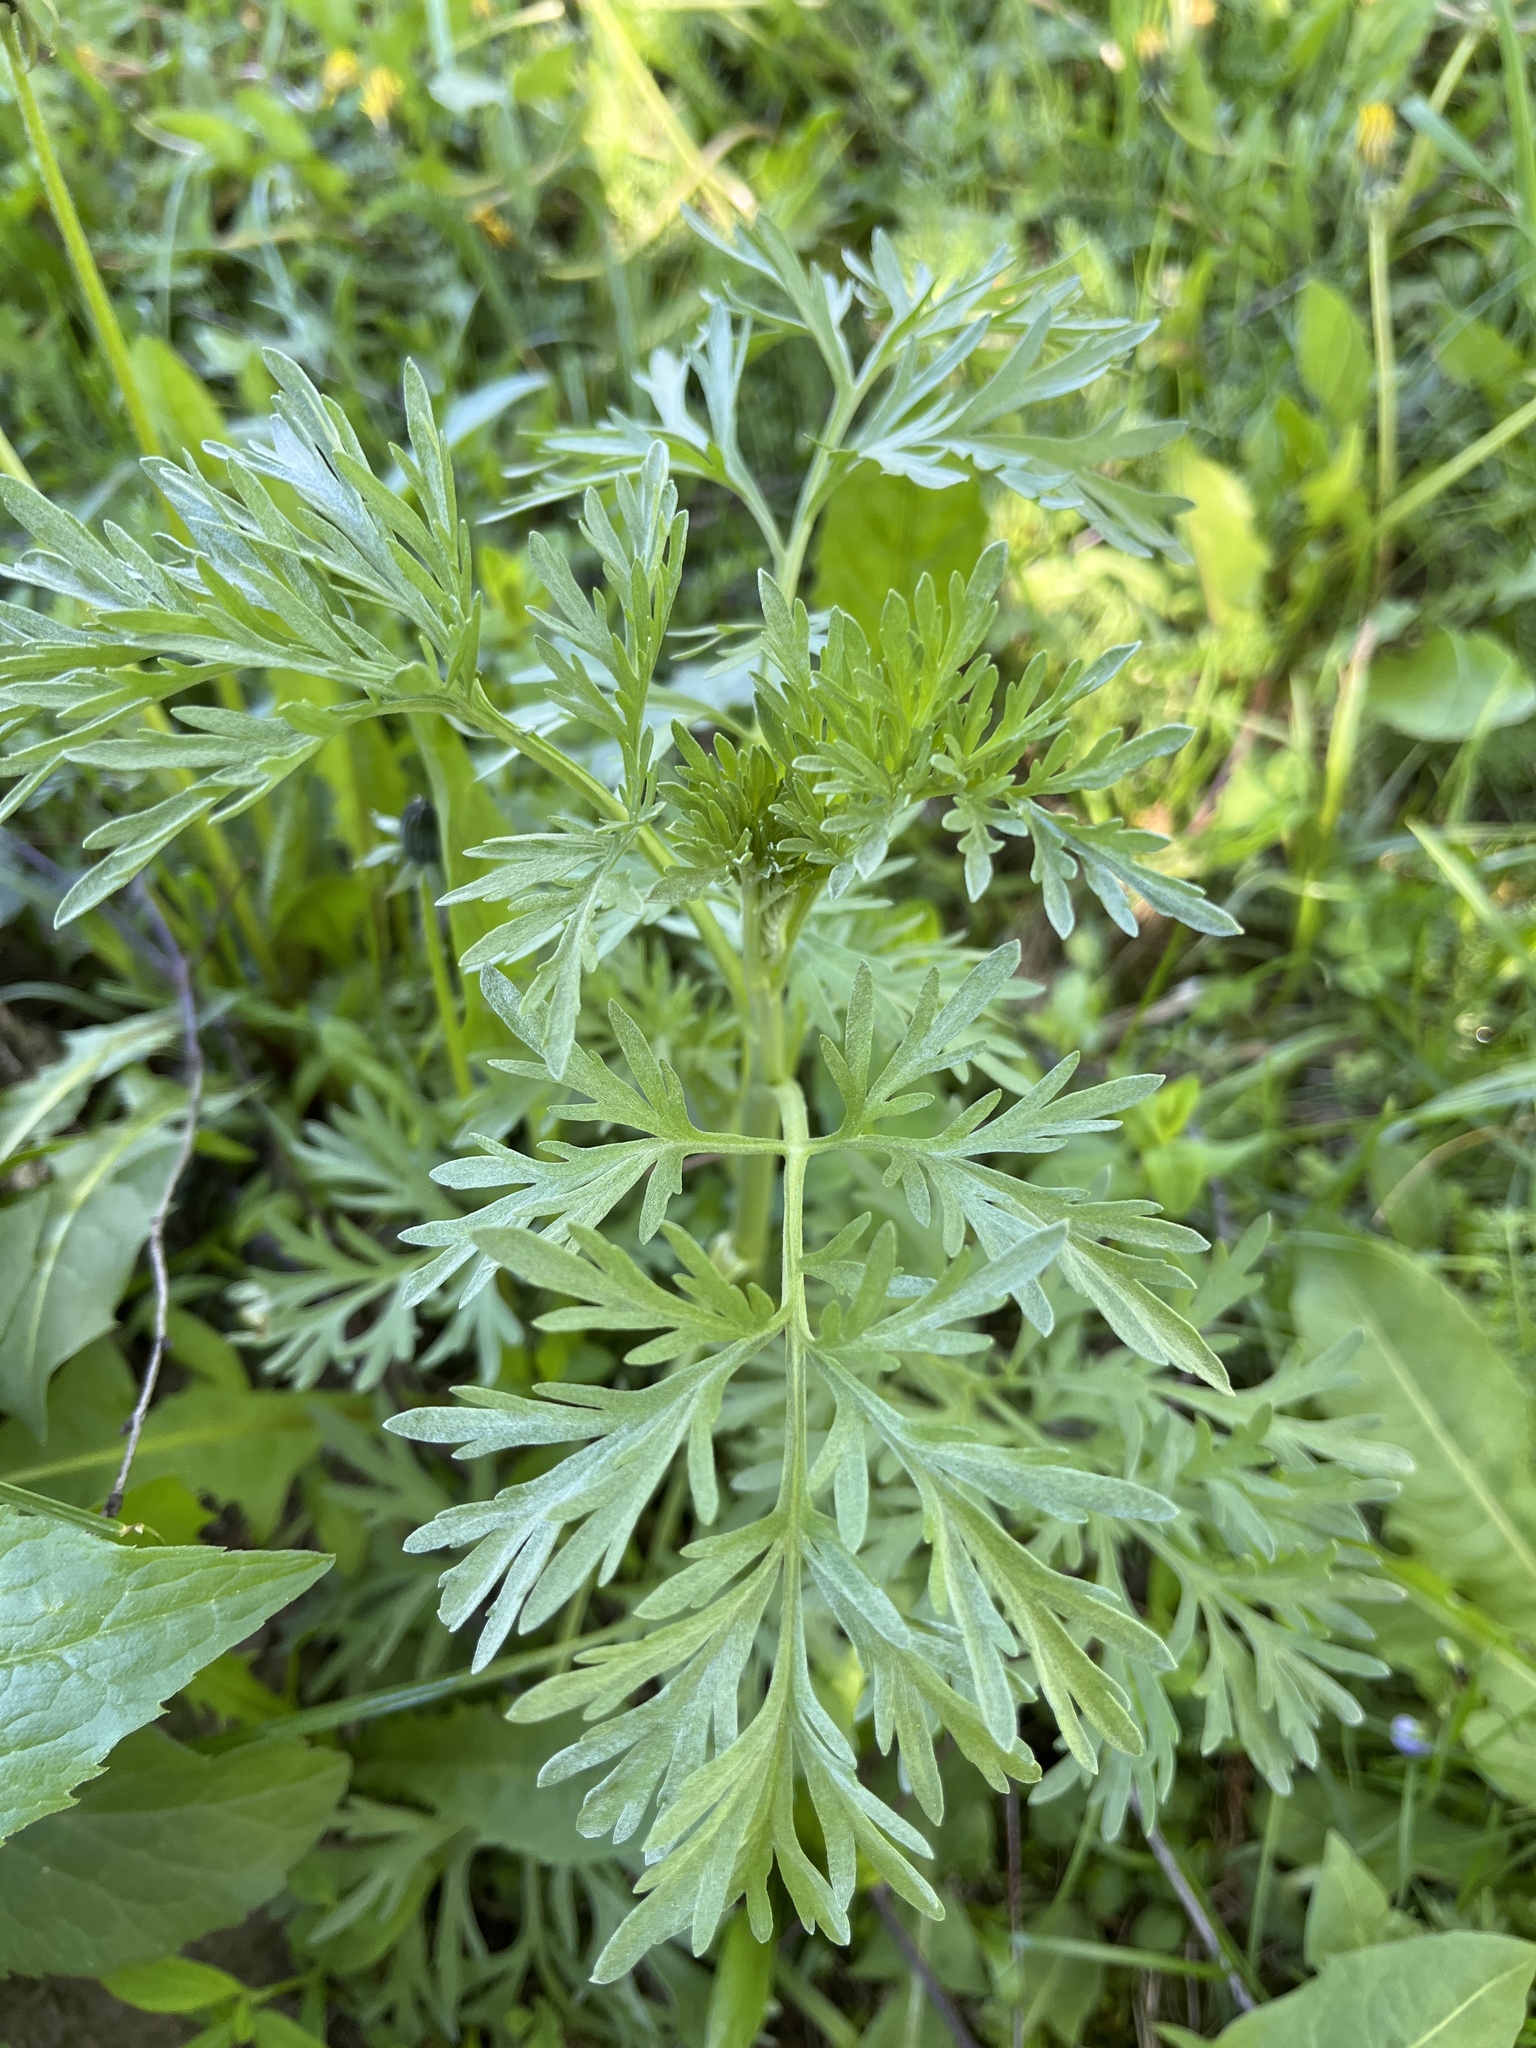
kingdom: Plantae
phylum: Tracheophyta
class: Magnoliopsida
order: Asterales
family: Asteraceae
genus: Artemisia
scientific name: Artemisia absinthium
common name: Wormwood
